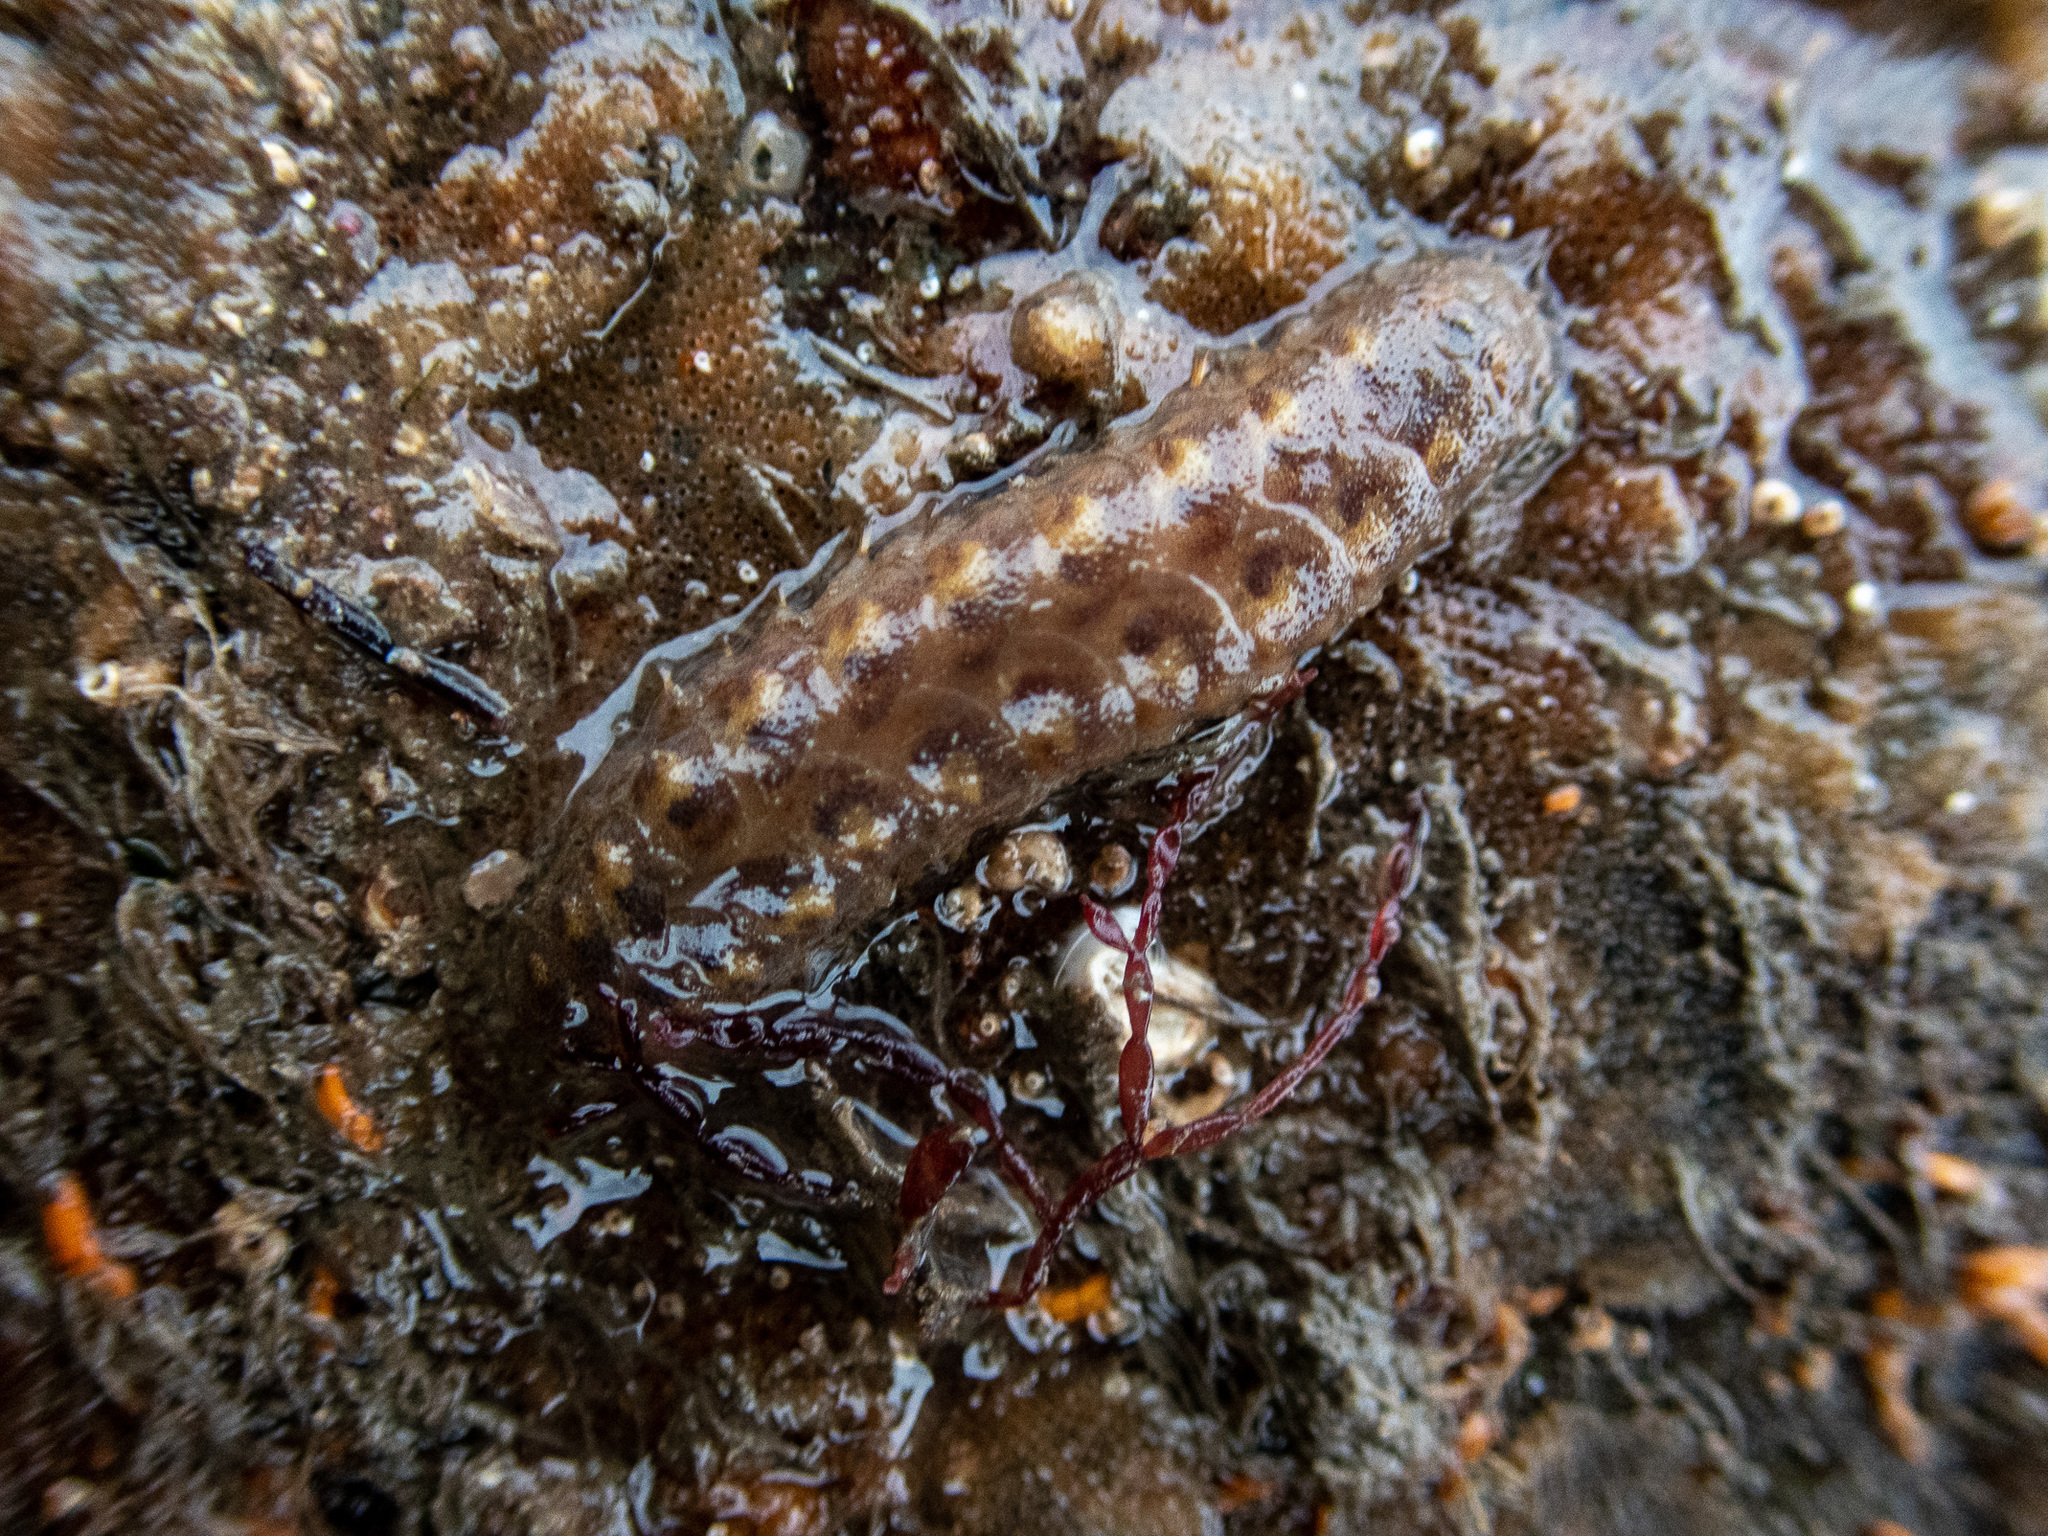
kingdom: Animalia
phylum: Annelida
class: Polychaeta
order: Phyllodocida
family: Polynoidae
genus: Lepidonotus
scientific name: Lepidonotus squamatus
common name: Twelve-scaled worm
